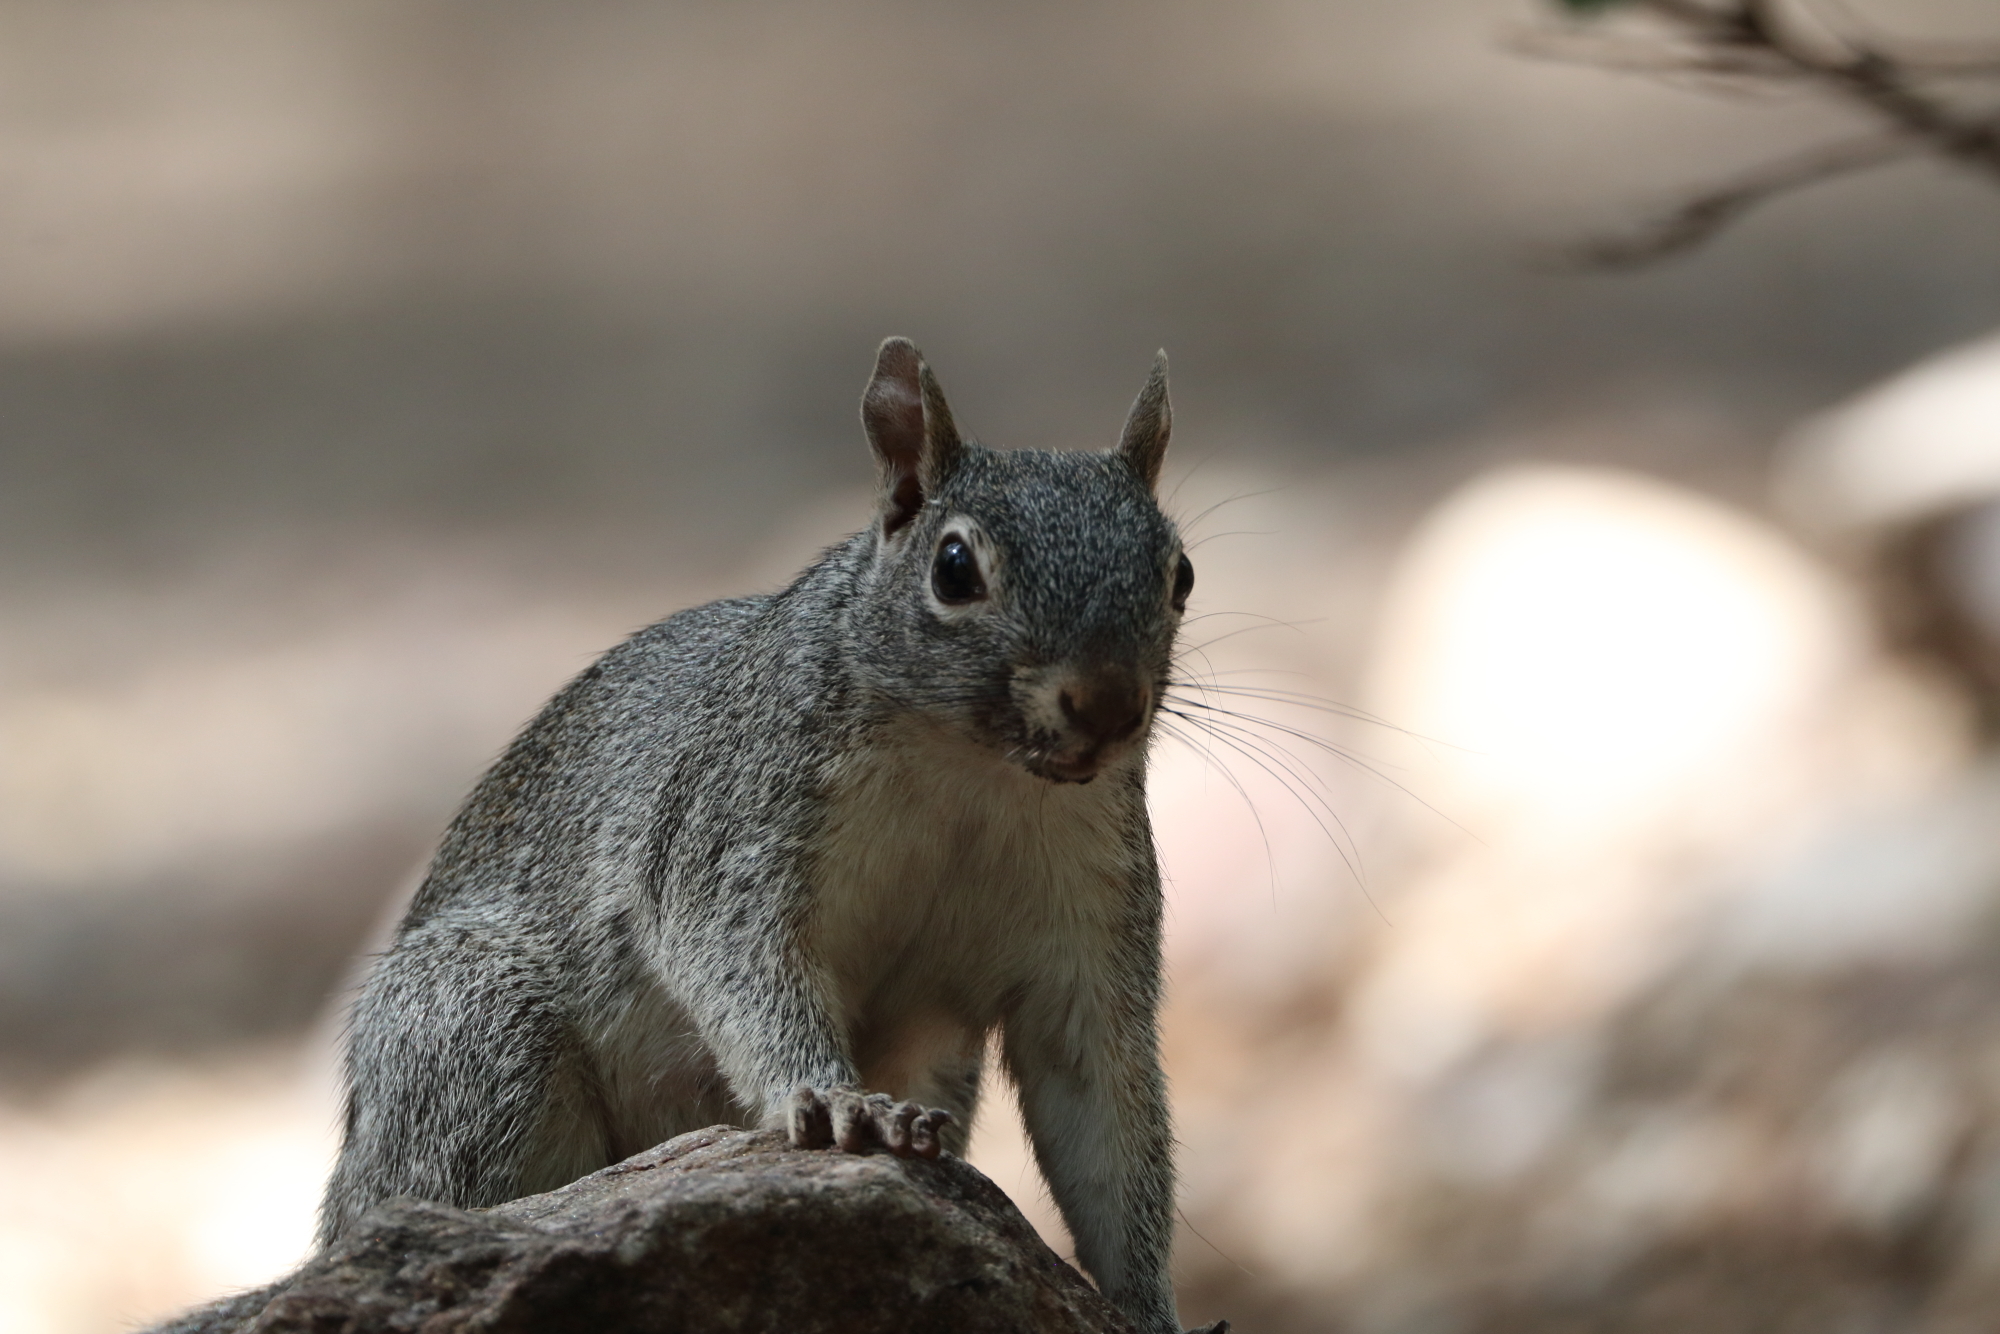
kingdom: Animalia
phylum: Chordata
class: Mammalia
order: Rodentia
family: Sciuridae
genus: Sciurus
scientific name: Sciurus arizonensis
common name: Arizona gray squirrel
